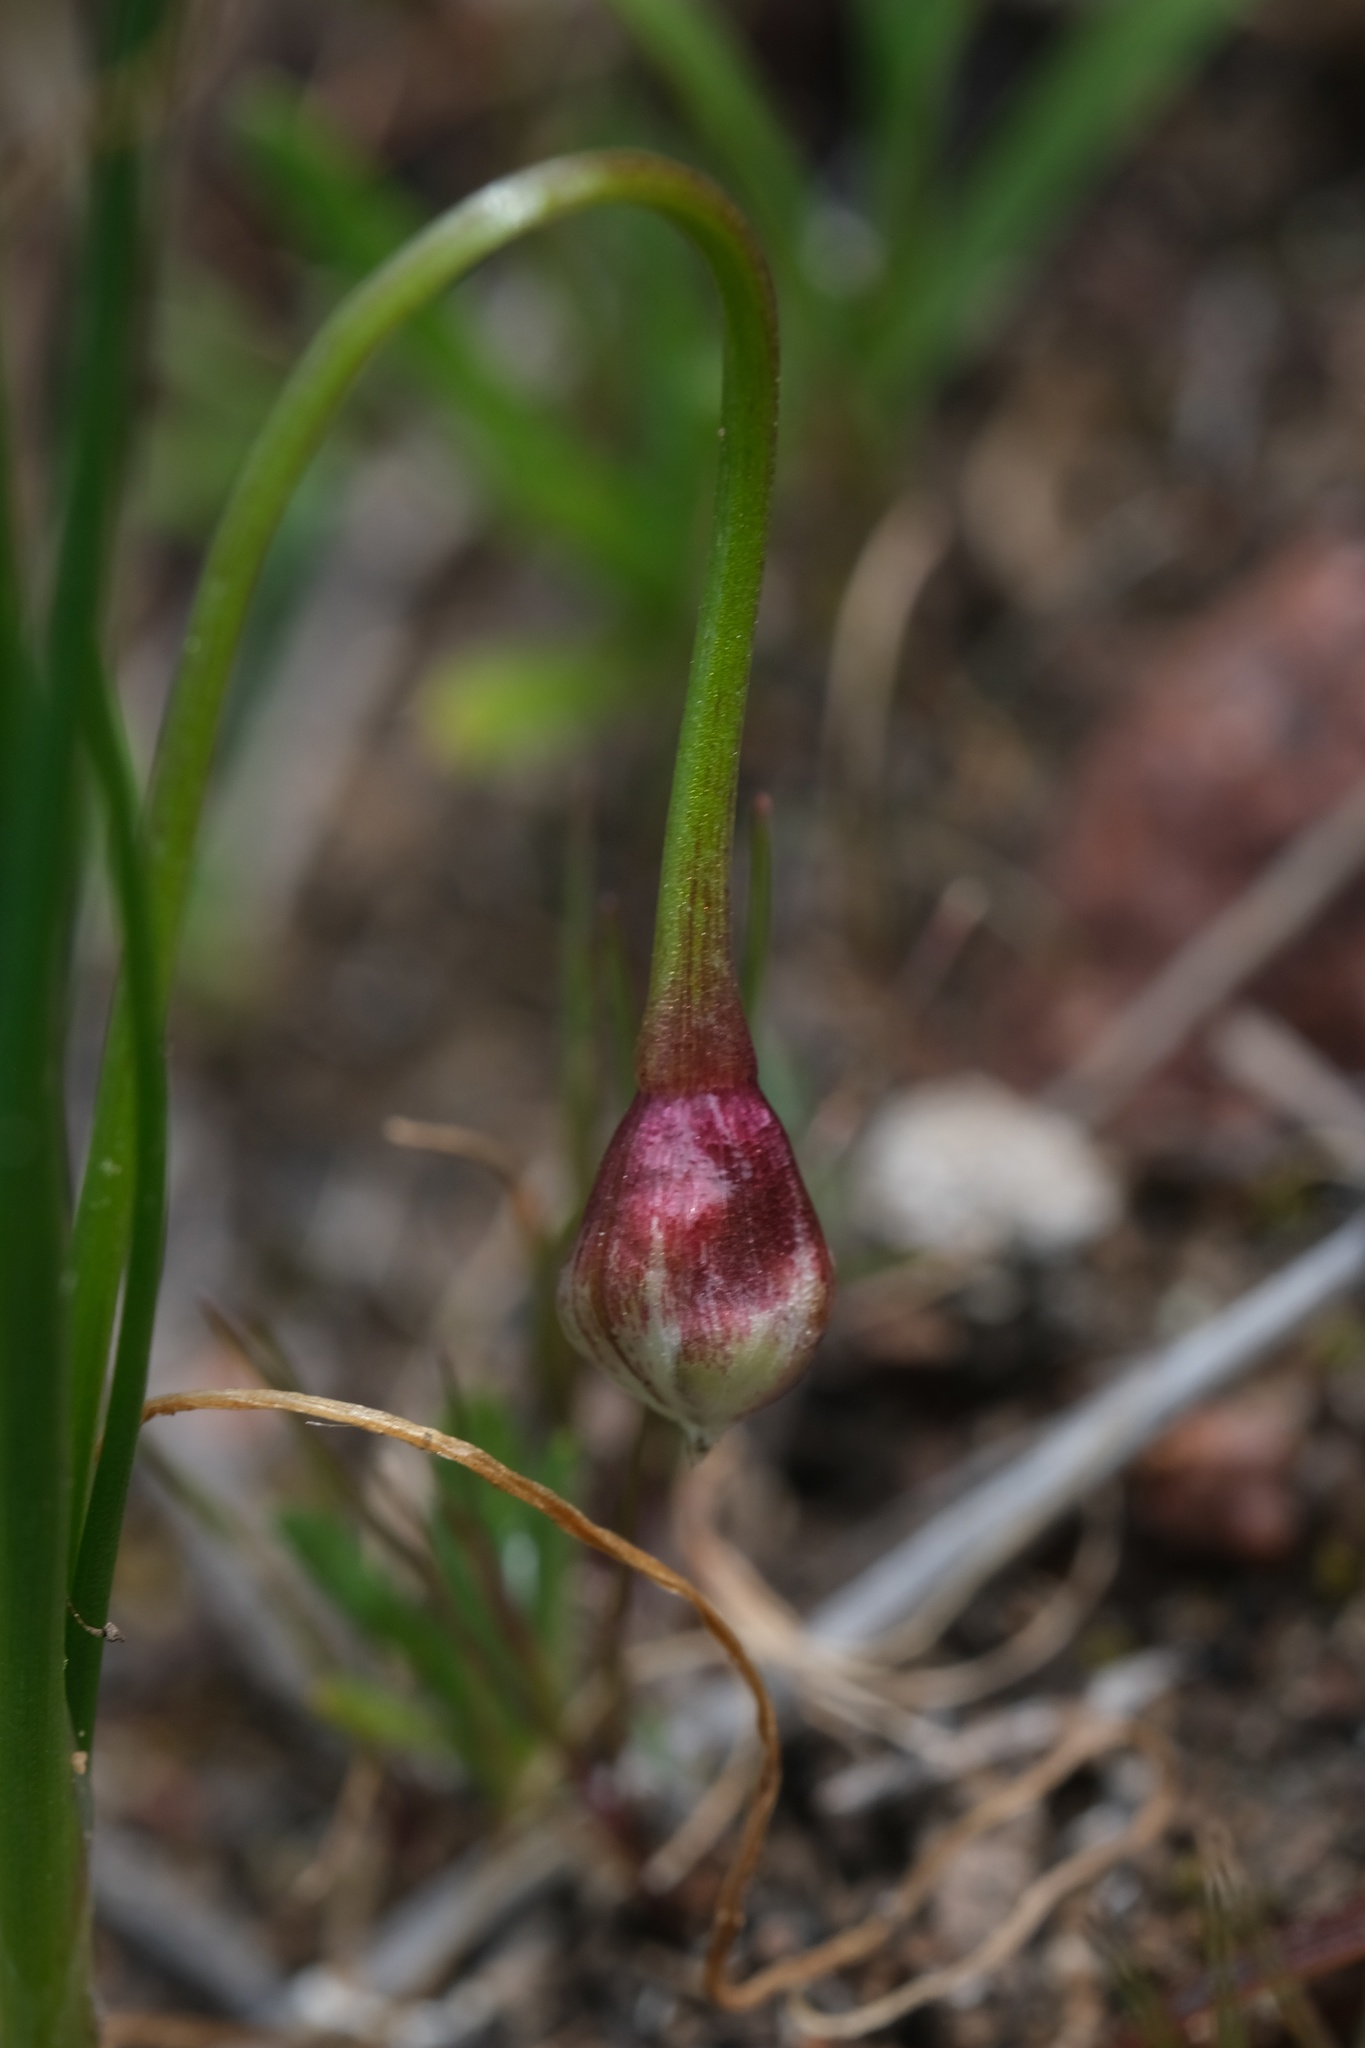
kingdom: Plantae
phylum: Tracheophyta
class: Liliopsida
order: Asparagales
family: Amaryllidaceae
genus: Allium
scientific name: Allium haematochiton
